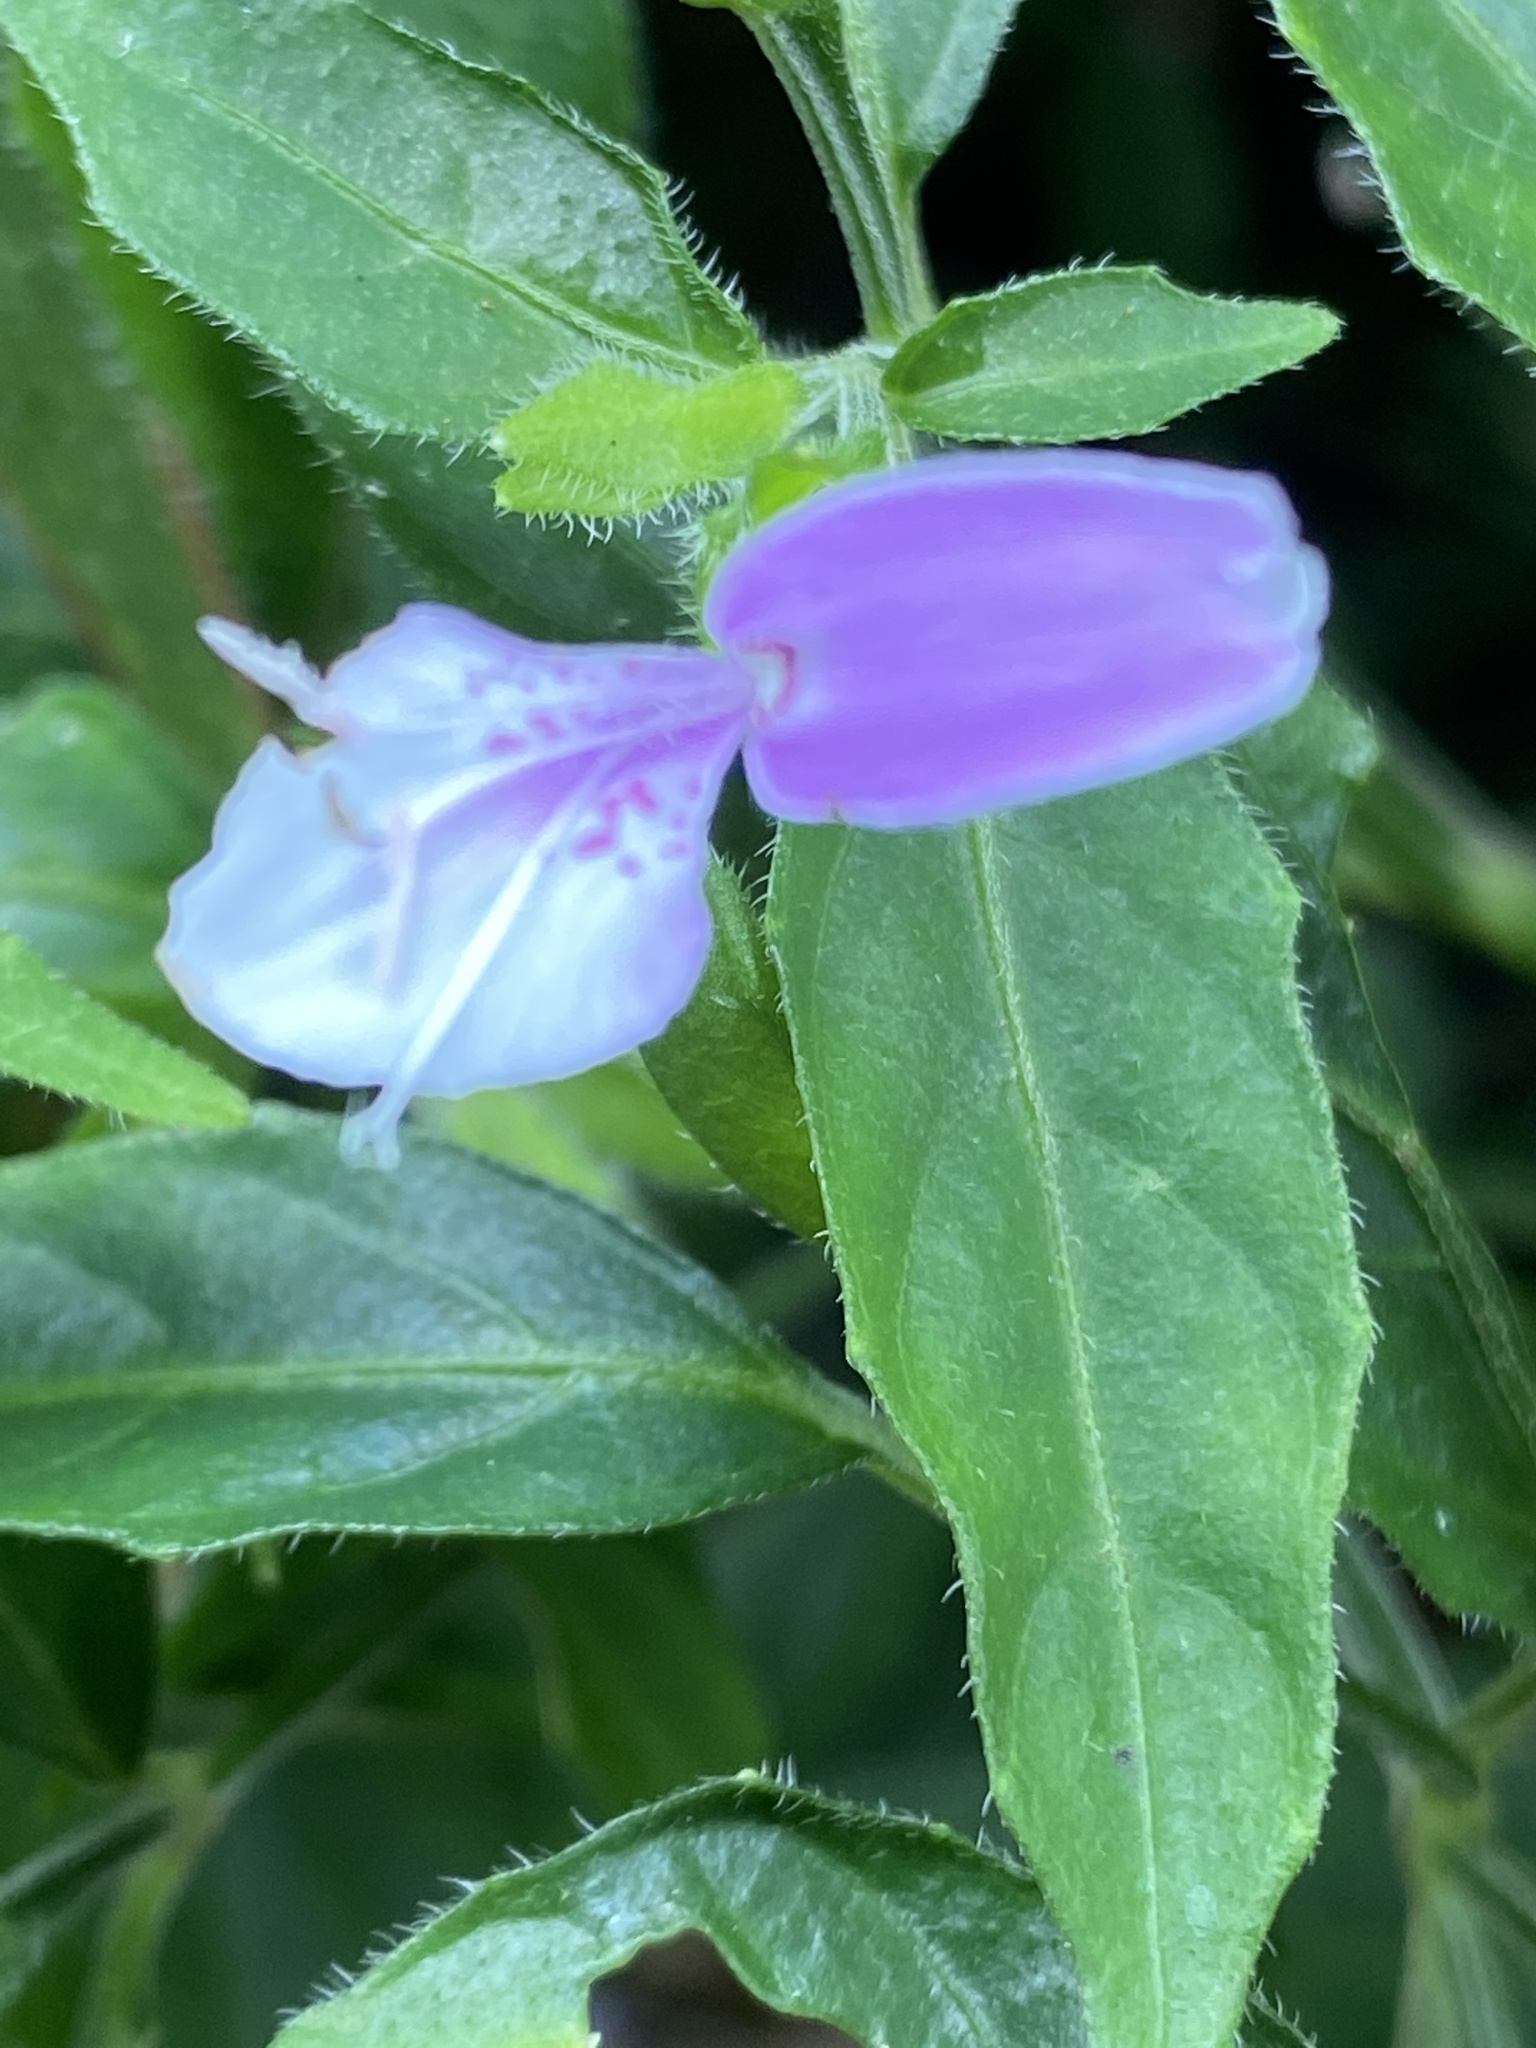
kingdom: Plantae
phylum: Tracheophyta
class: Magnoliopsida
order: Lamiales
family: Acanthaceae
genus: Dicliptera
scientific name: Dicliptera japonica
